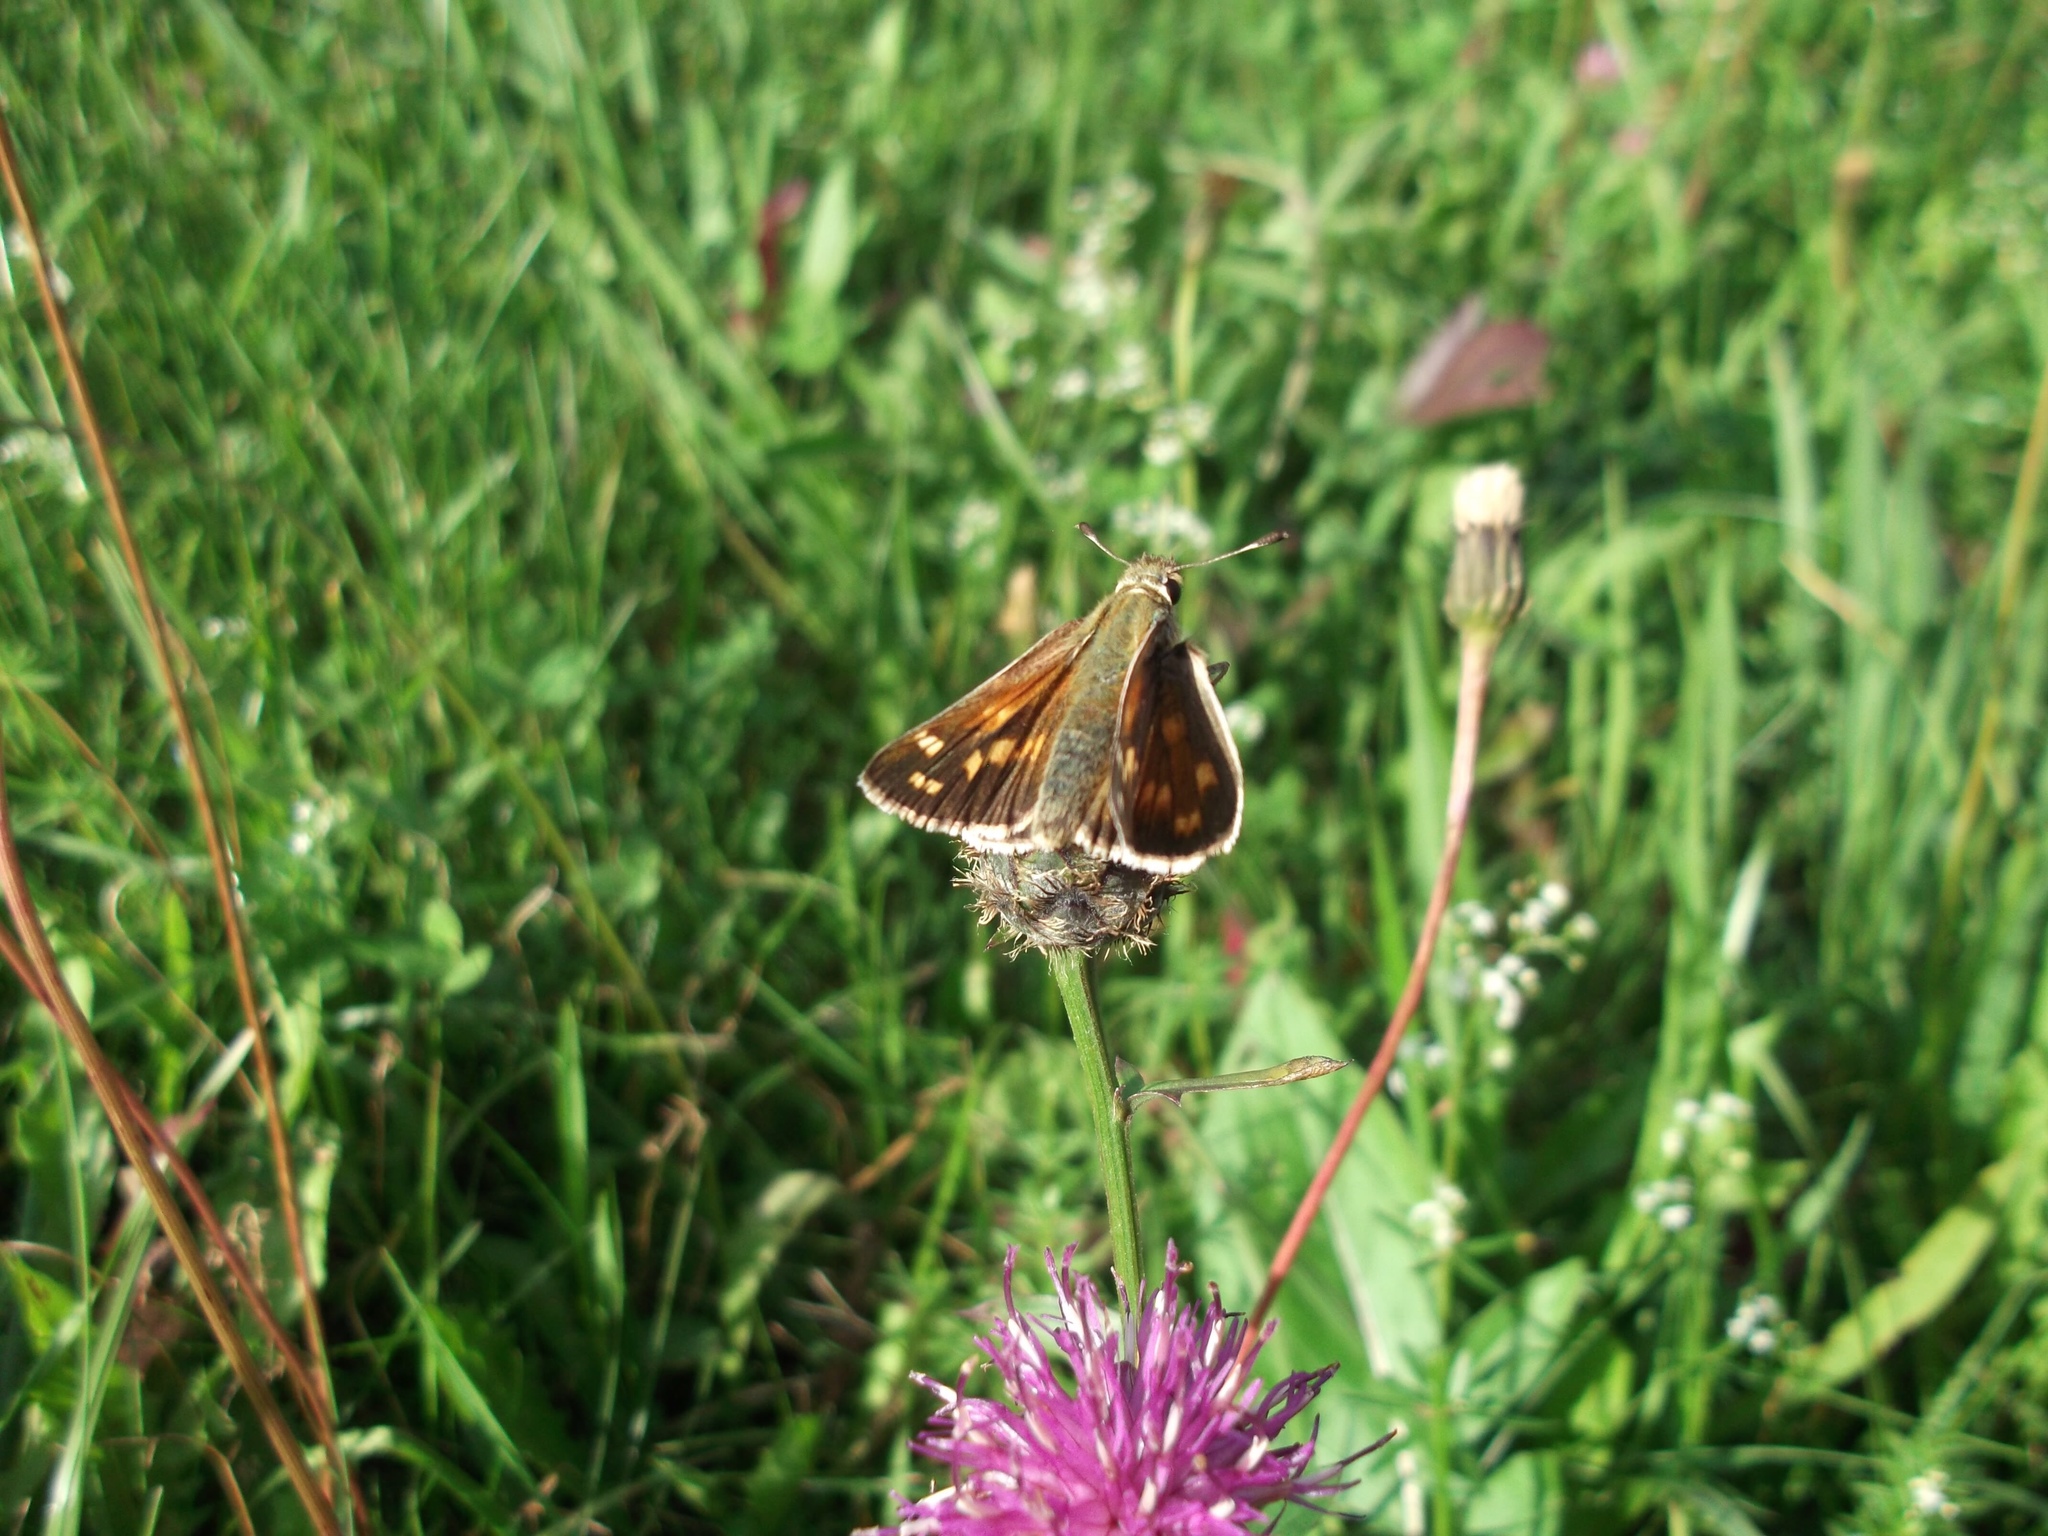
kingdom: Animalia
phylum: Arthropoda
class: Insecta
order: Lepidoptera
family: Hesperiidae
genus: Hesperia
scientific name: Hesperia comma
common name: Common branded skipper
